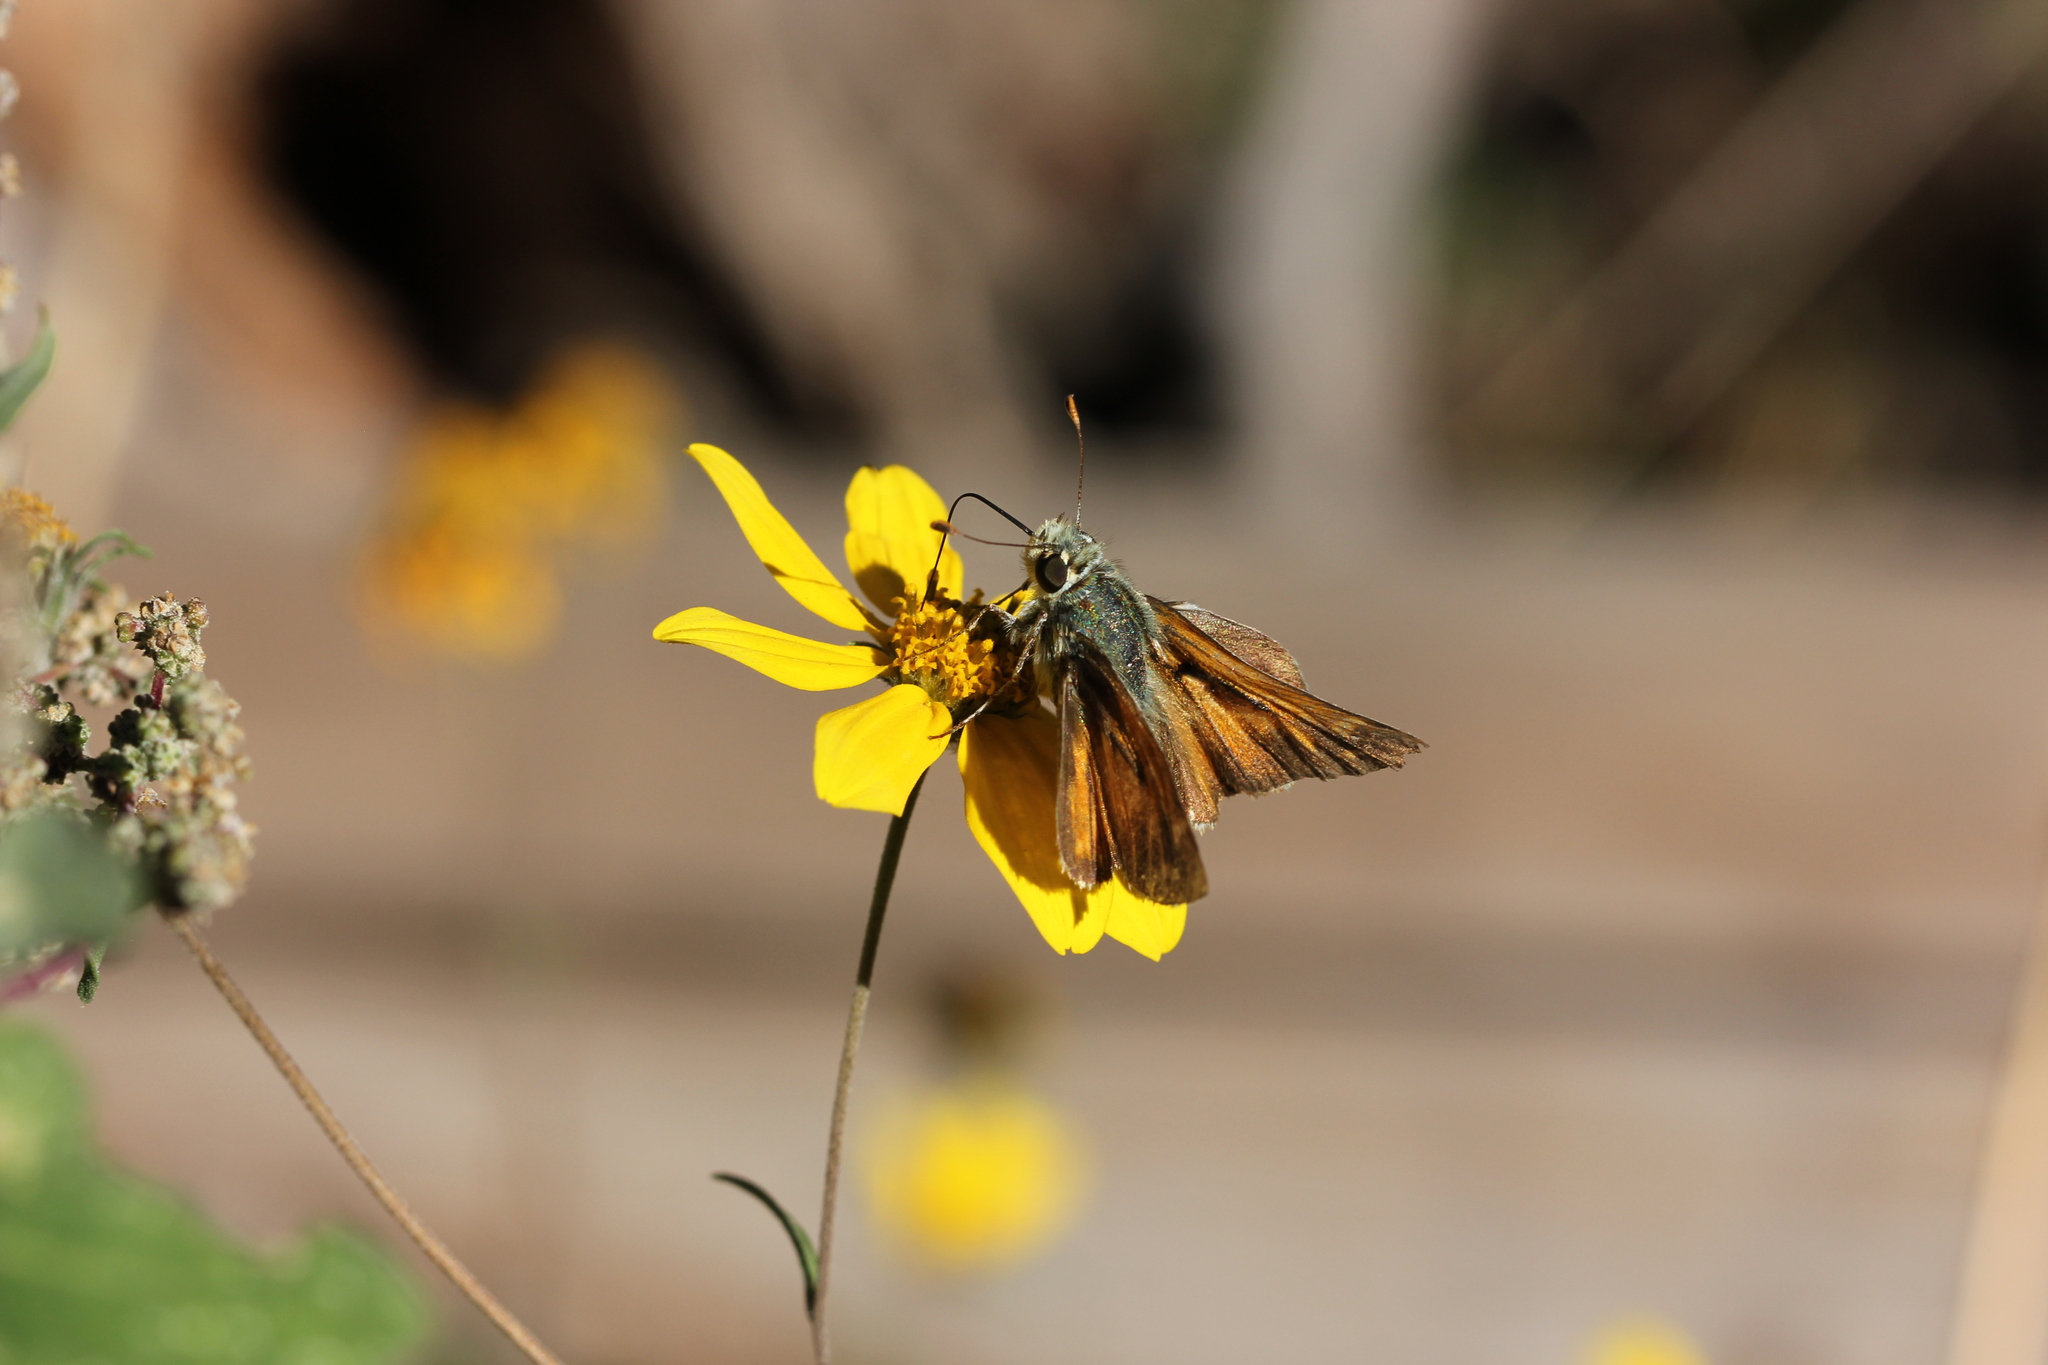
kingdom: Animalia
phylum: Arthropoda
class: Insecta
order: Lepidoptera
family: Hesperiidae
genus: Hesperia
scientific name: Hesperia comma
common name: Common branded skipper
